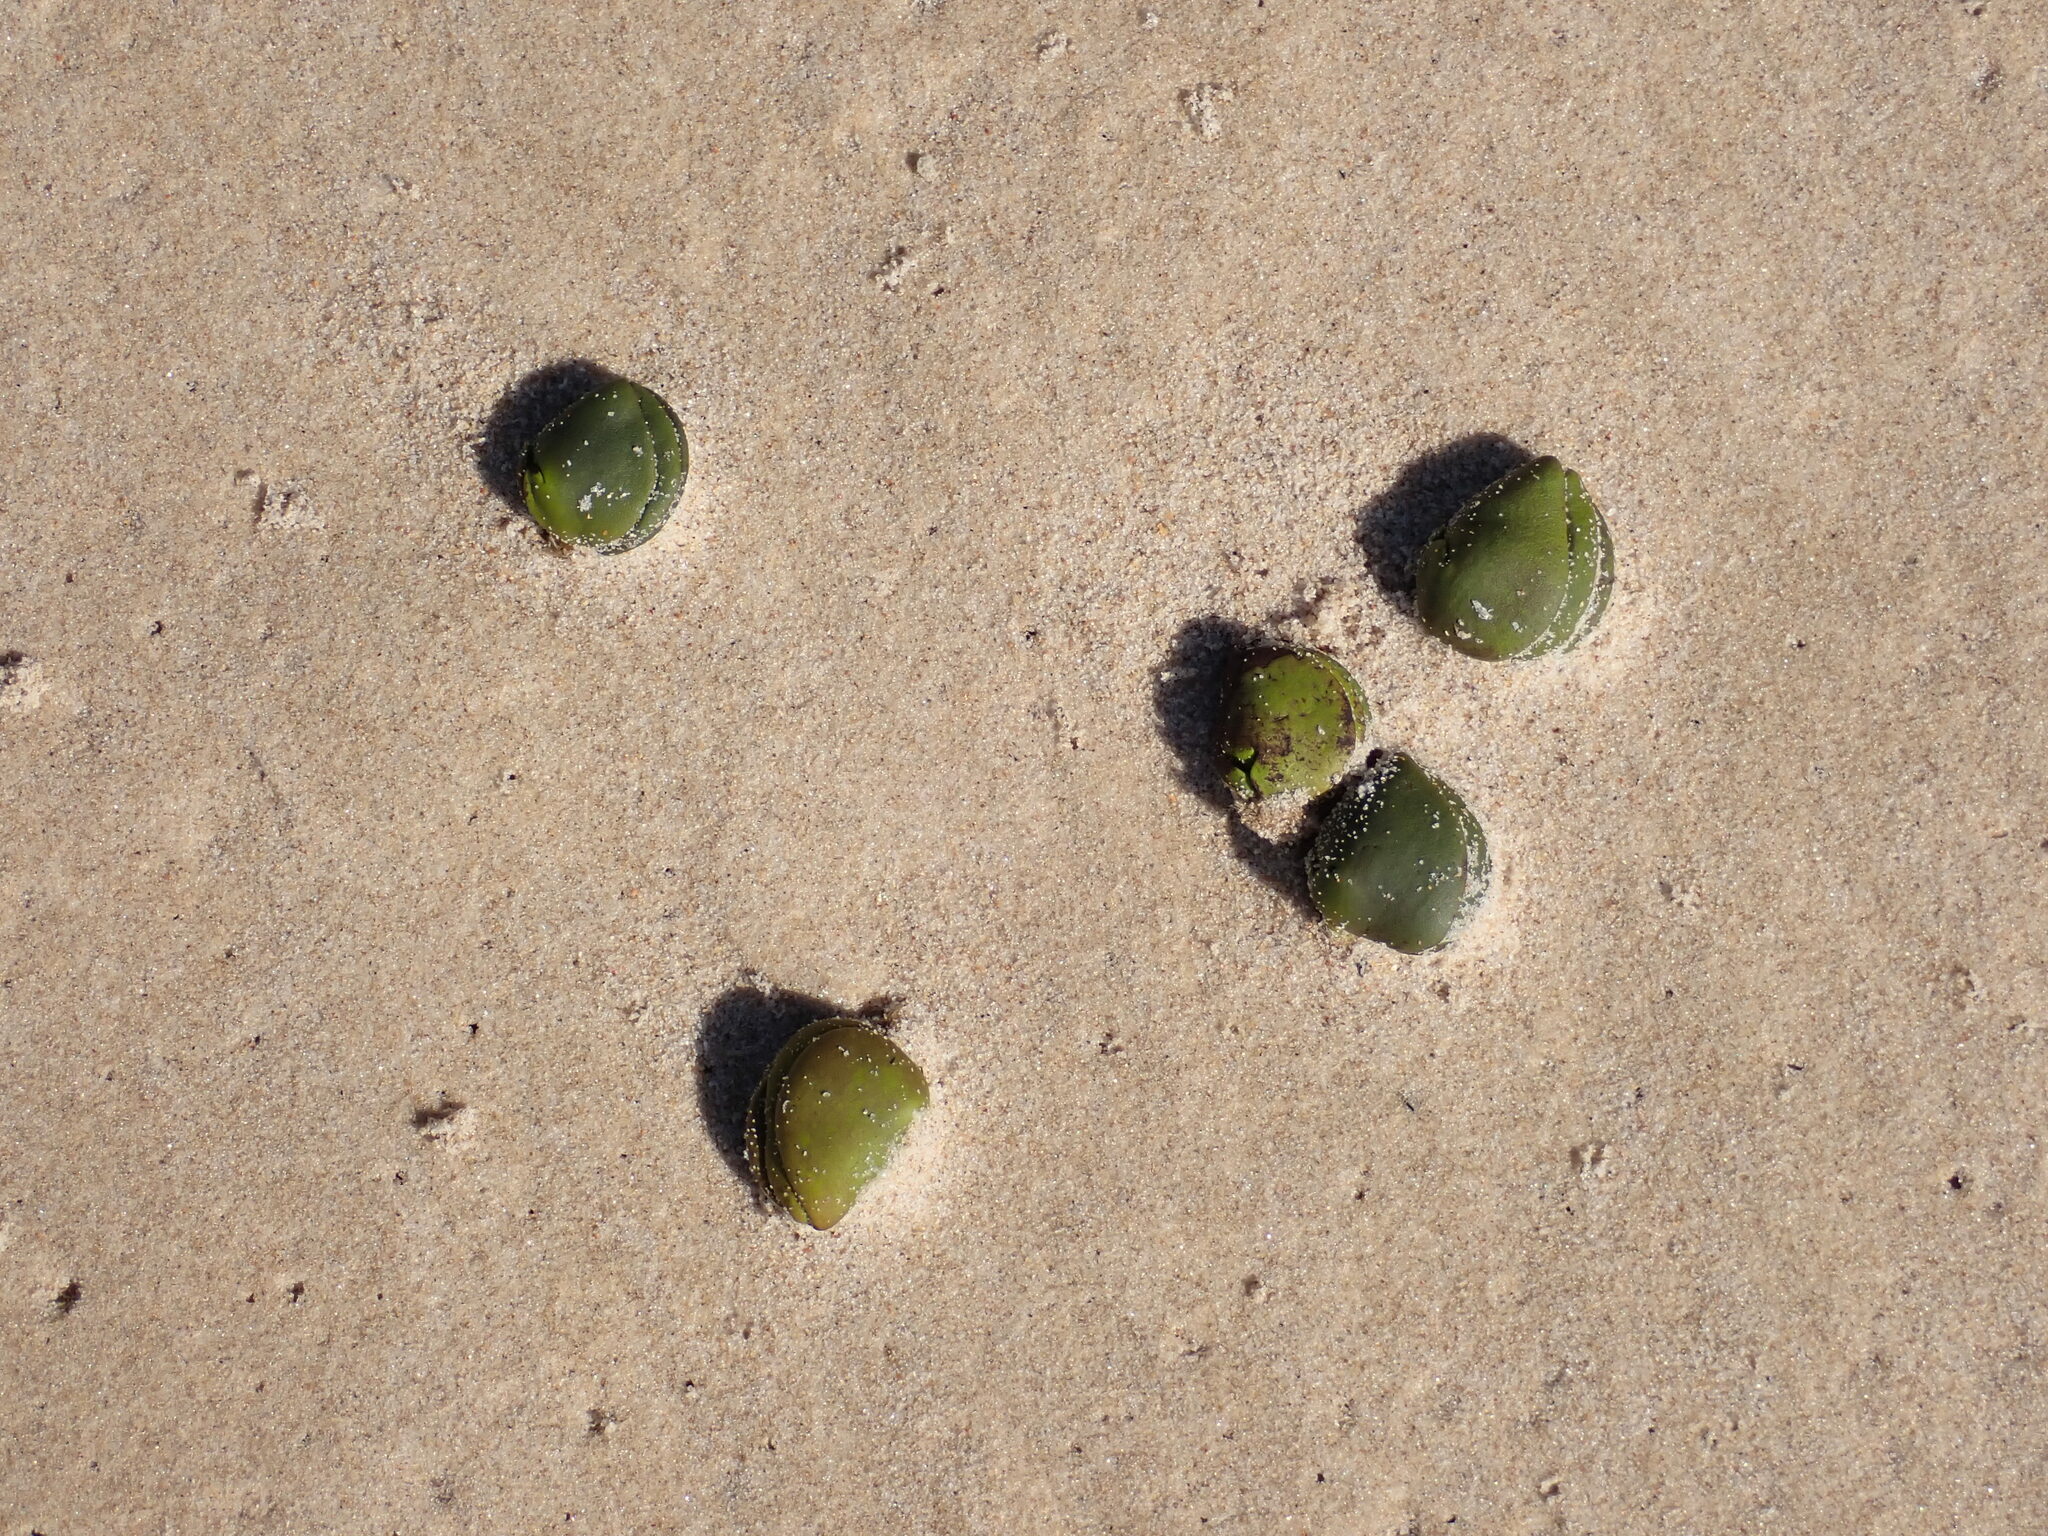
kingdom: Plantae
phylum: Tracheophyta
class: Magnoliopsida
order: Lamiales
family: Acanthaceae
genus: Avicennia
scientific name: Avicennia marina
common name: Gray mangrove
